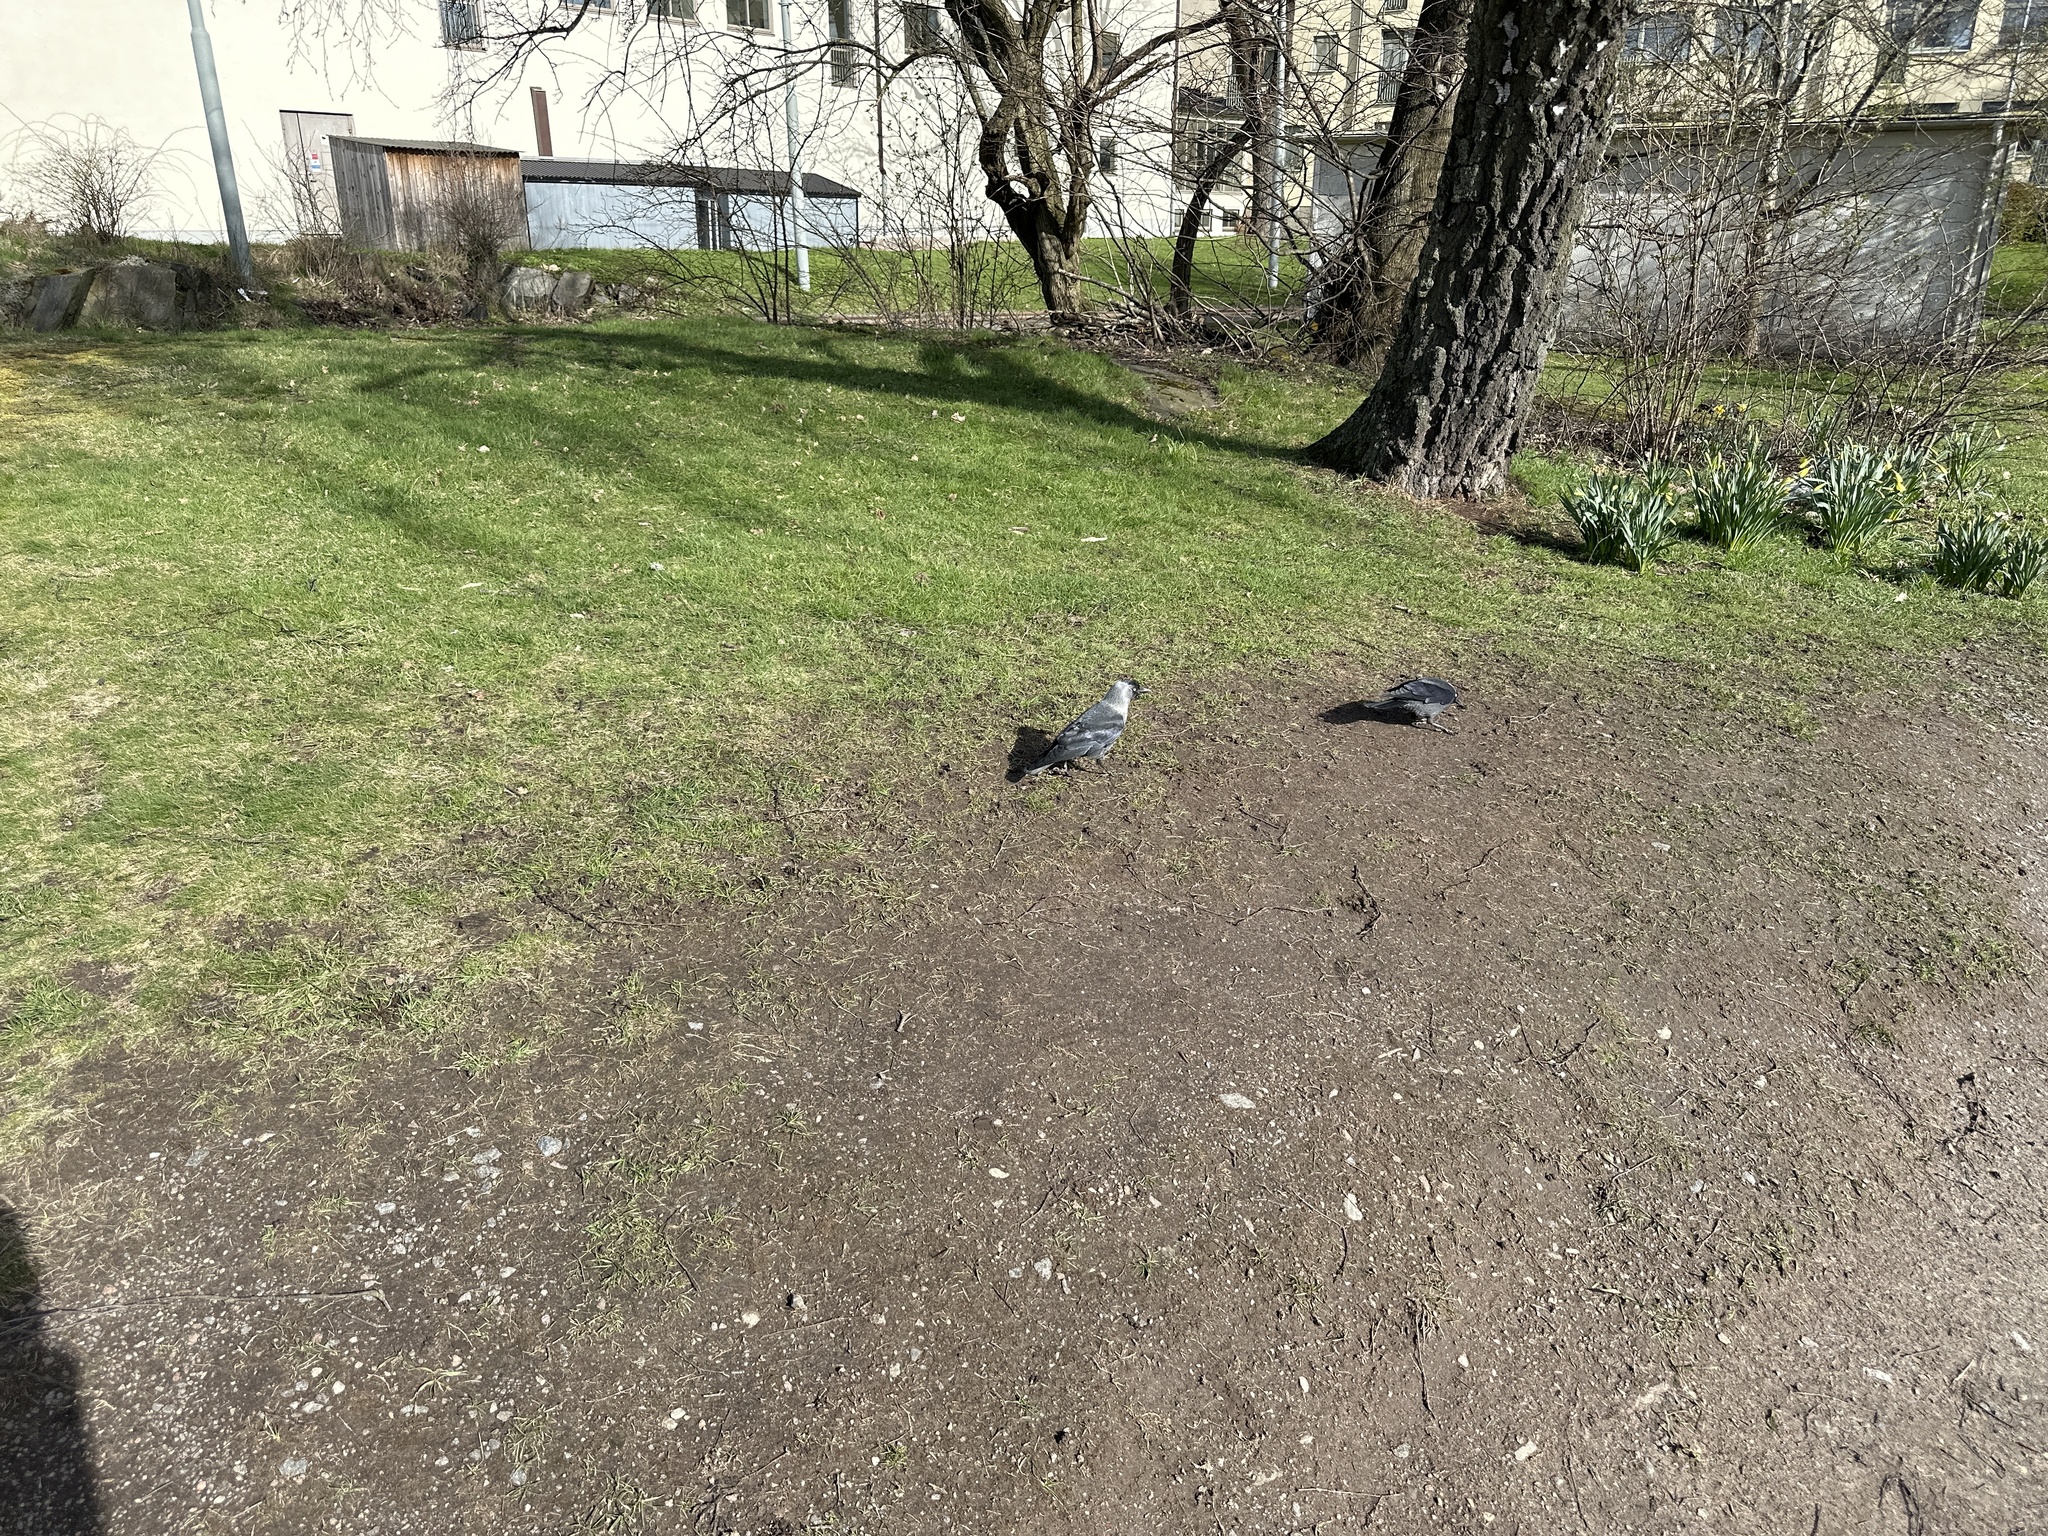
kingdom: Animalia
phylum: Chordata
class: Aves
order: Passeriformes
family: Corvidae
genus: Coloeus
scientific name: Coloeus monedula
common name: Western jackdaw
